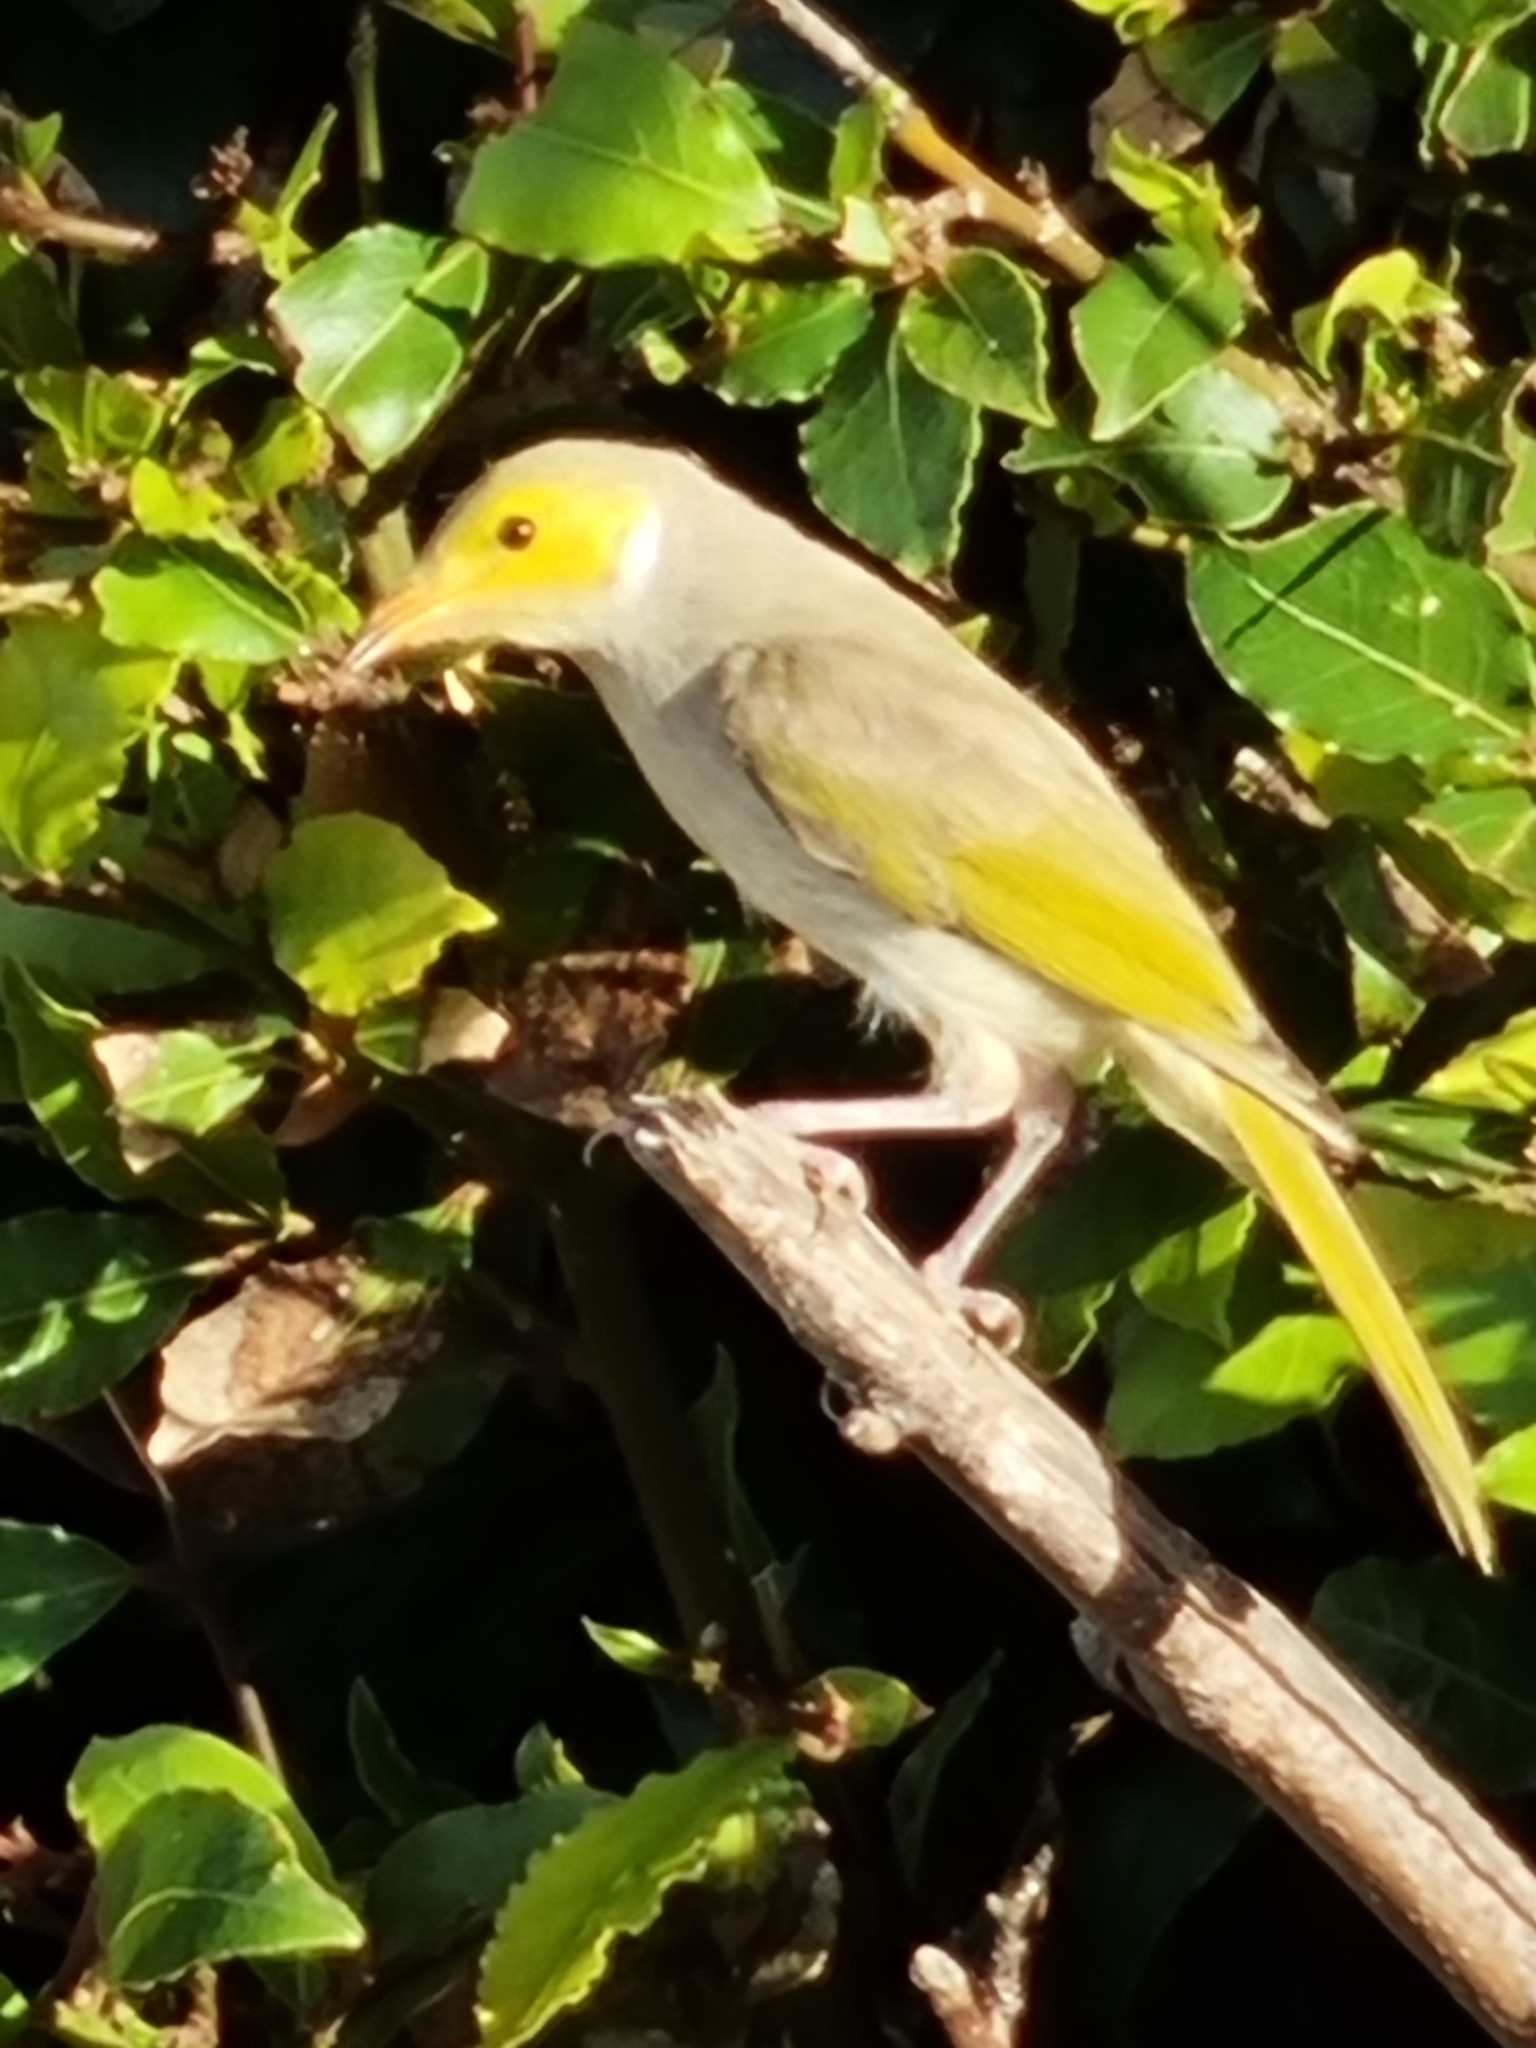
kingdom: Animalia
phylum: Chordata
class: Aves
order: Passeriformes
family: Meliphagidae
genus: Ptilotula
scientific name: Ptilotula penicillata
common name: White-plumed honeyeater
